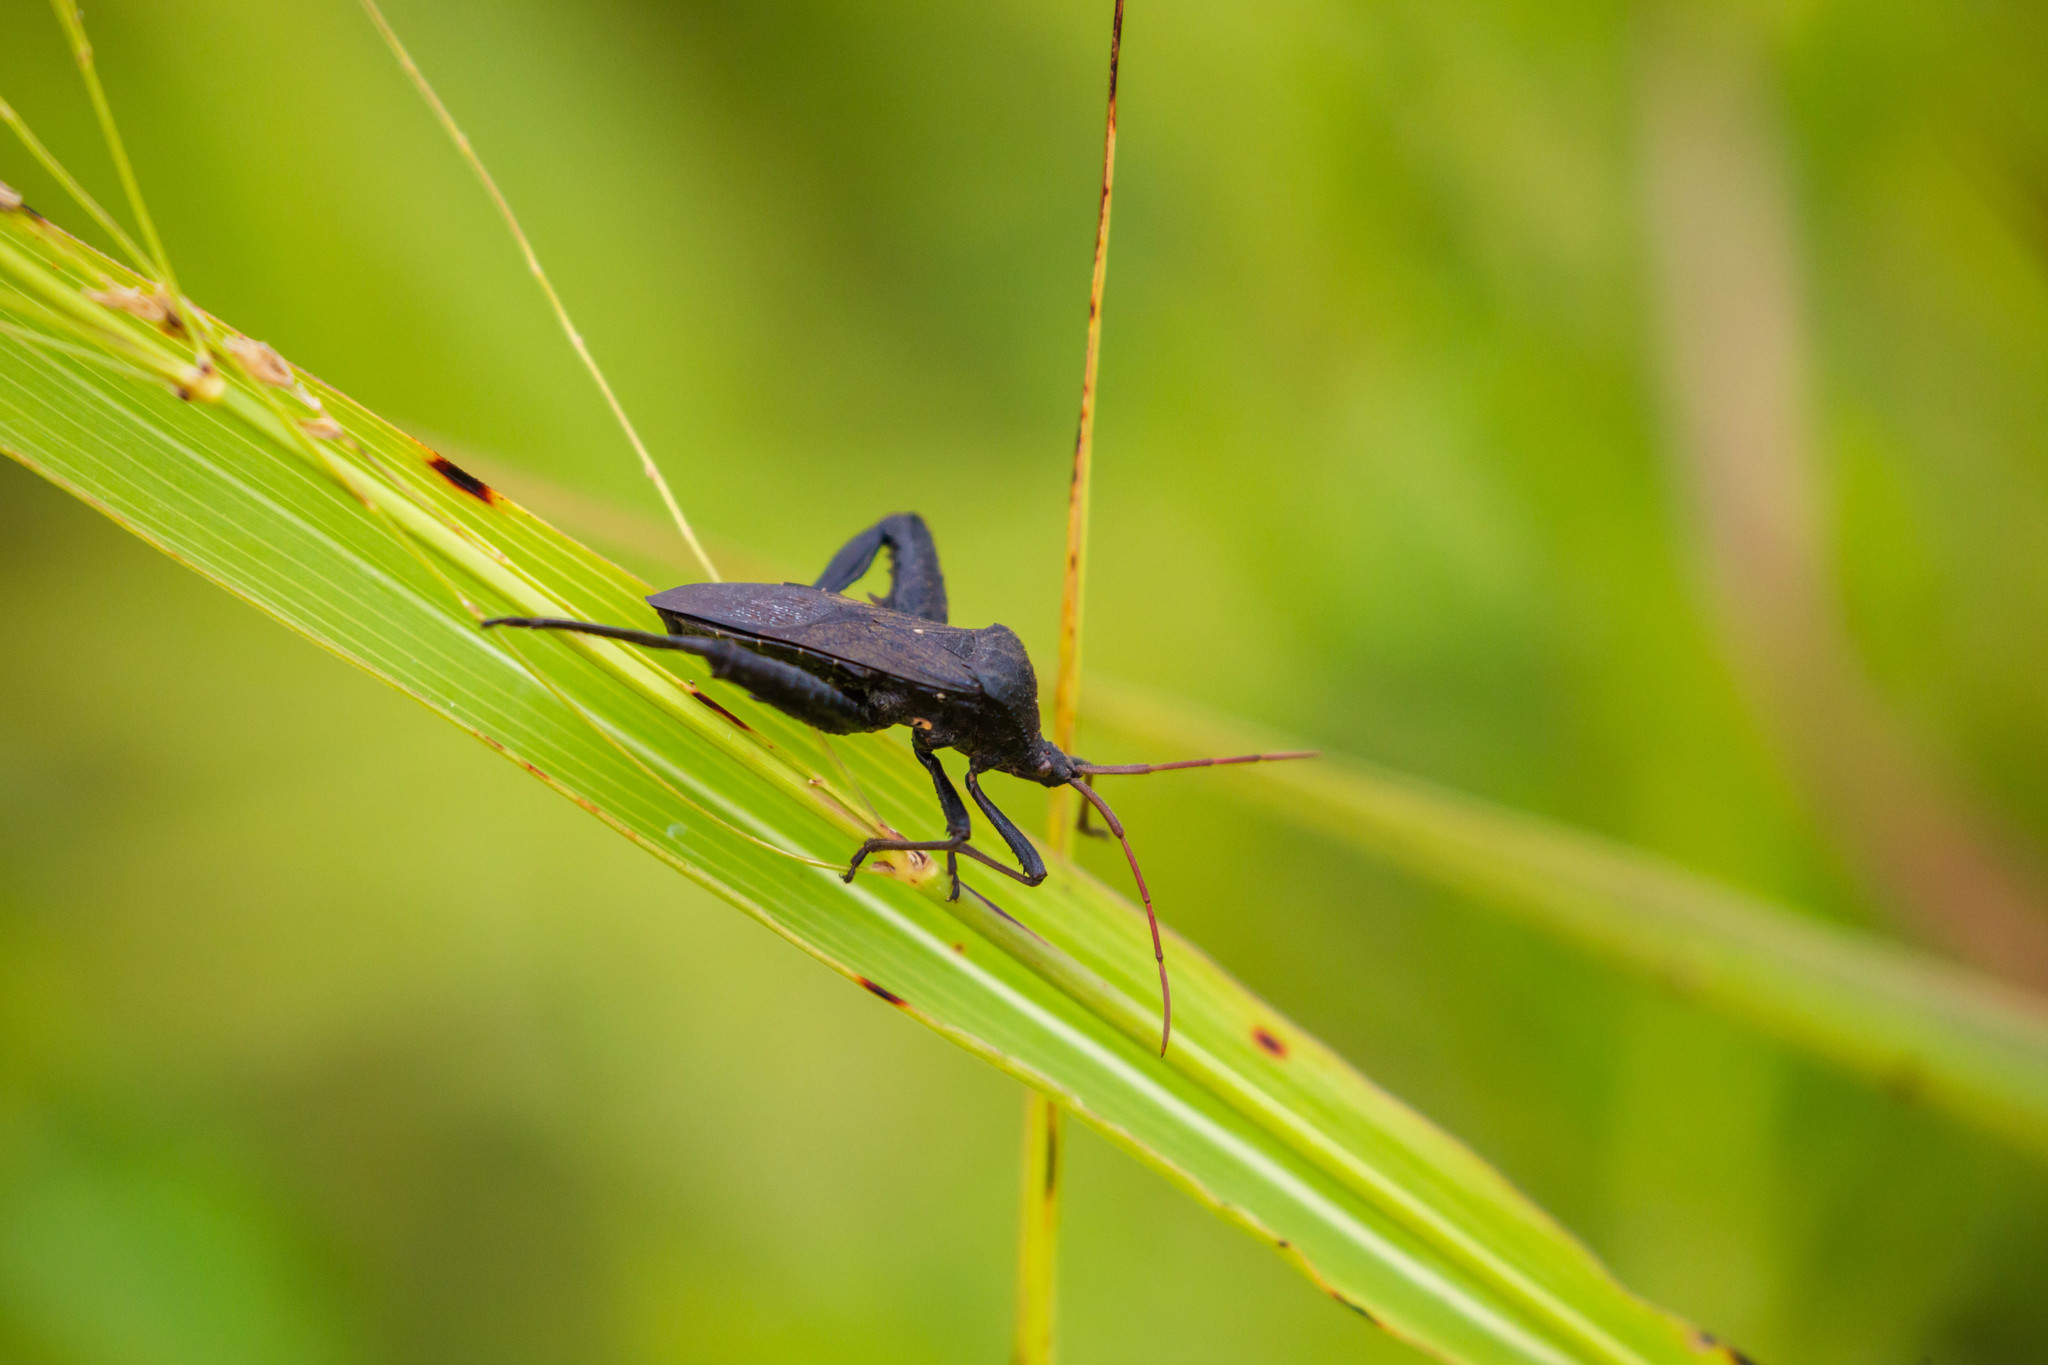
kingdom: Animalia
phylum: Arthropoda
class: Insecta
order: Hemiptera
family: Coreidae
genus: Acanthocephala
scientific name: Acanthocephala femorata
